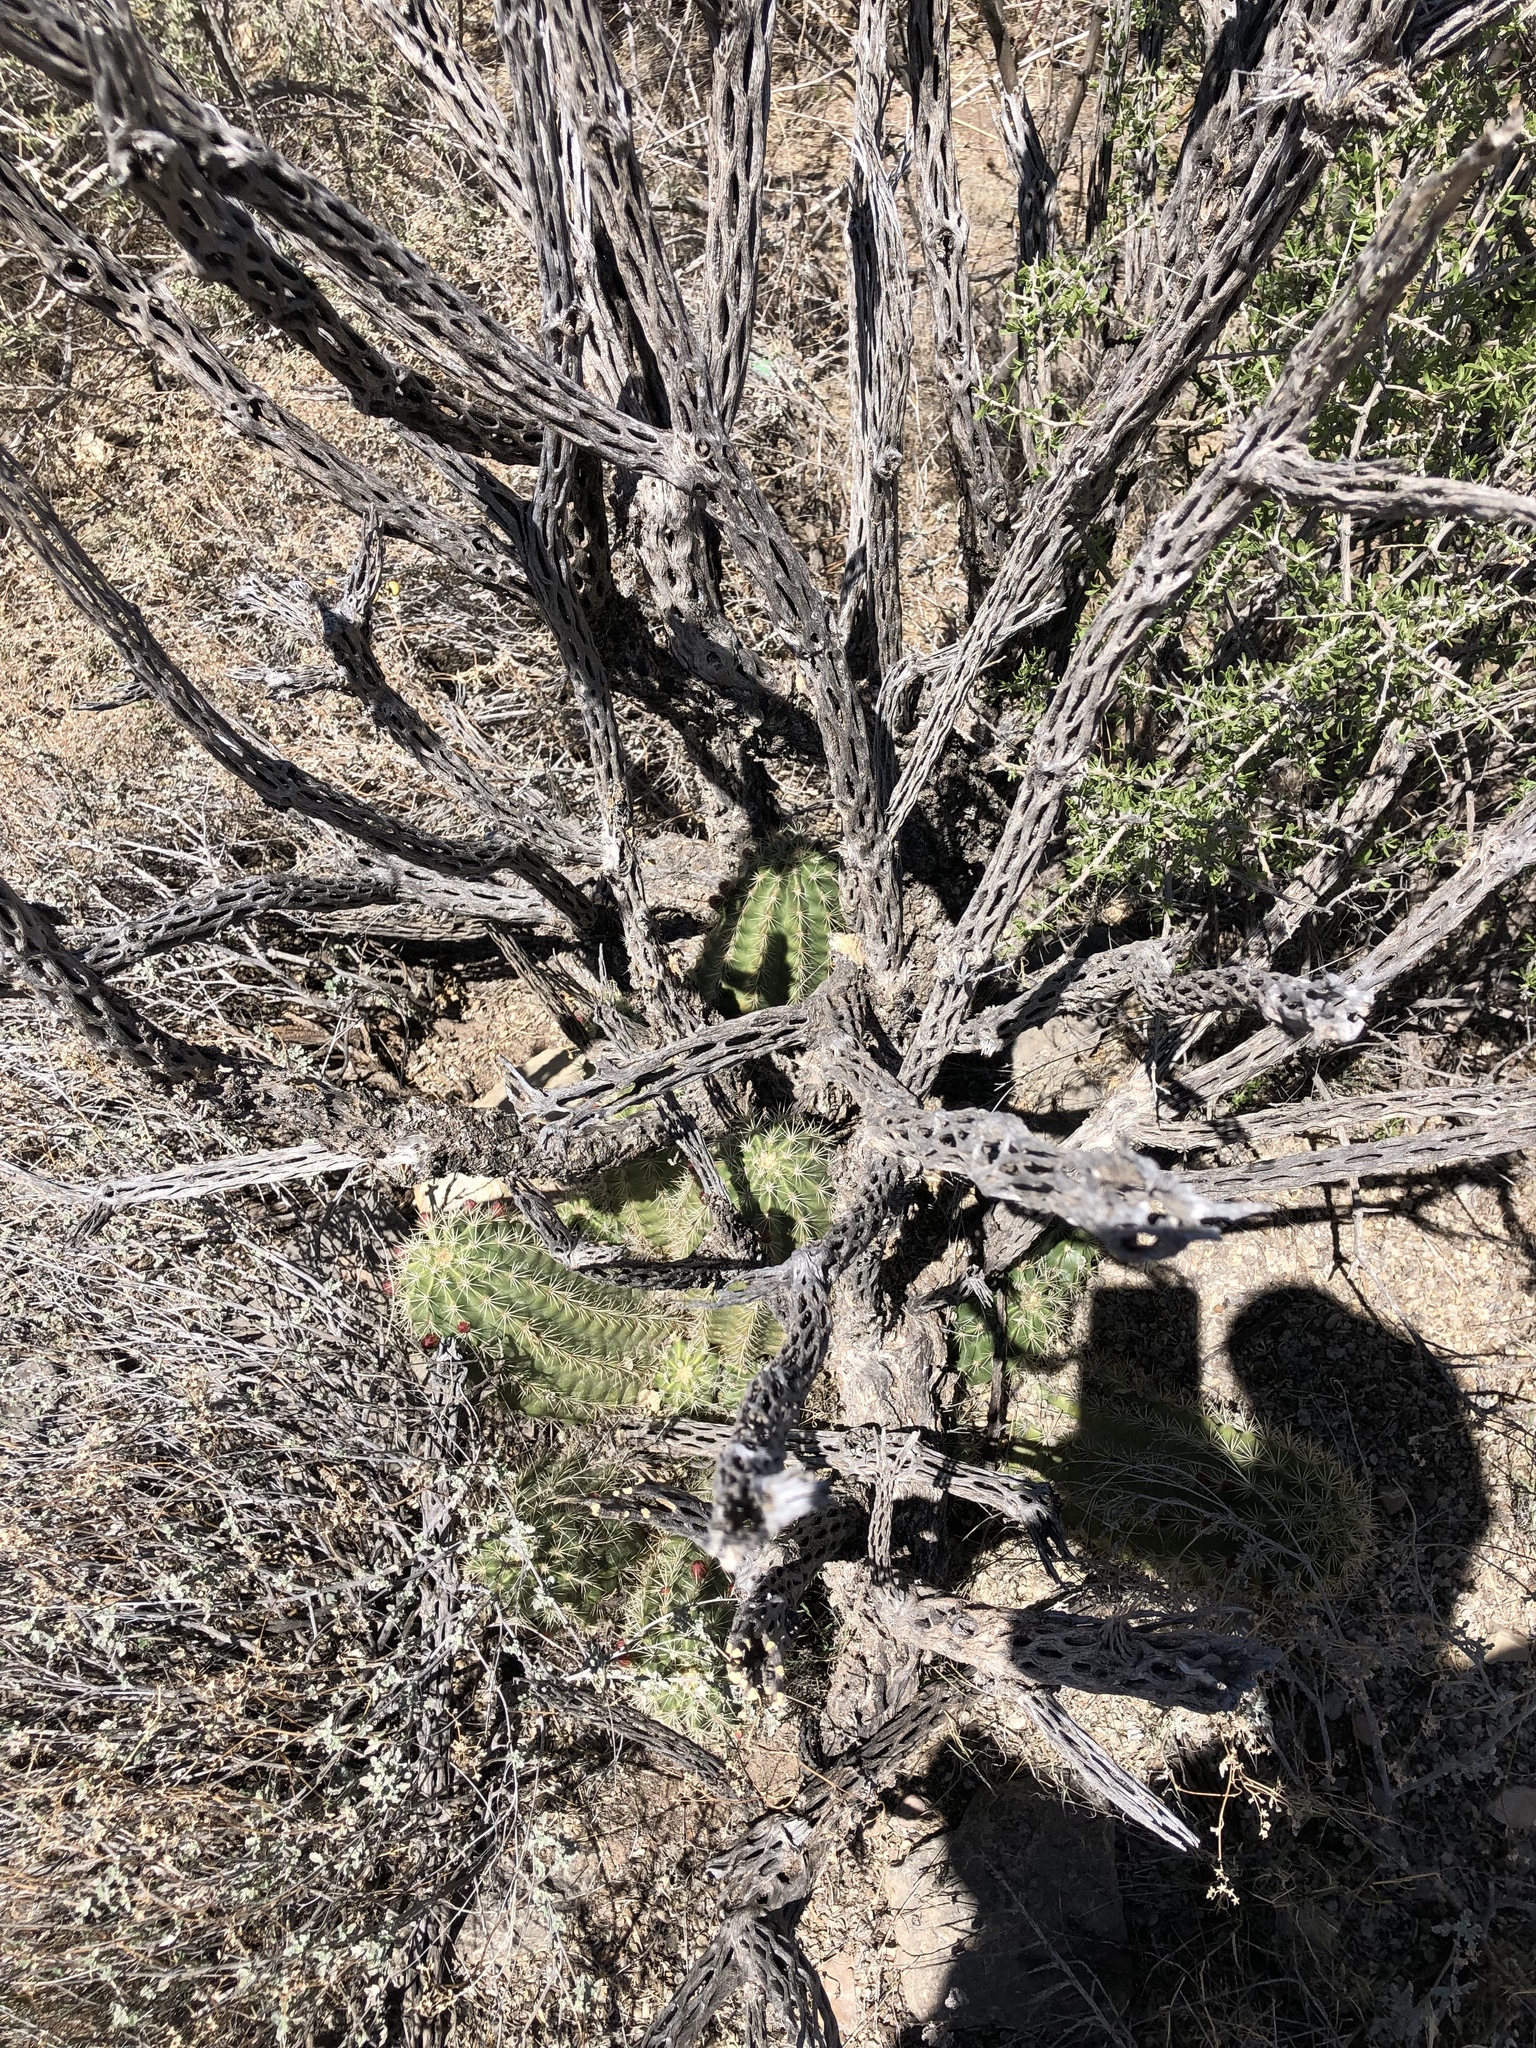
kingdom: Plantae
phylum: Tracheophyta
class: Magnoliopsida
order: Caryophyllales
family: Cactaceae
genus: Echinocereus
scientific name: Echinocereus coccineus
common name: Scarlet hedgehog cactus
